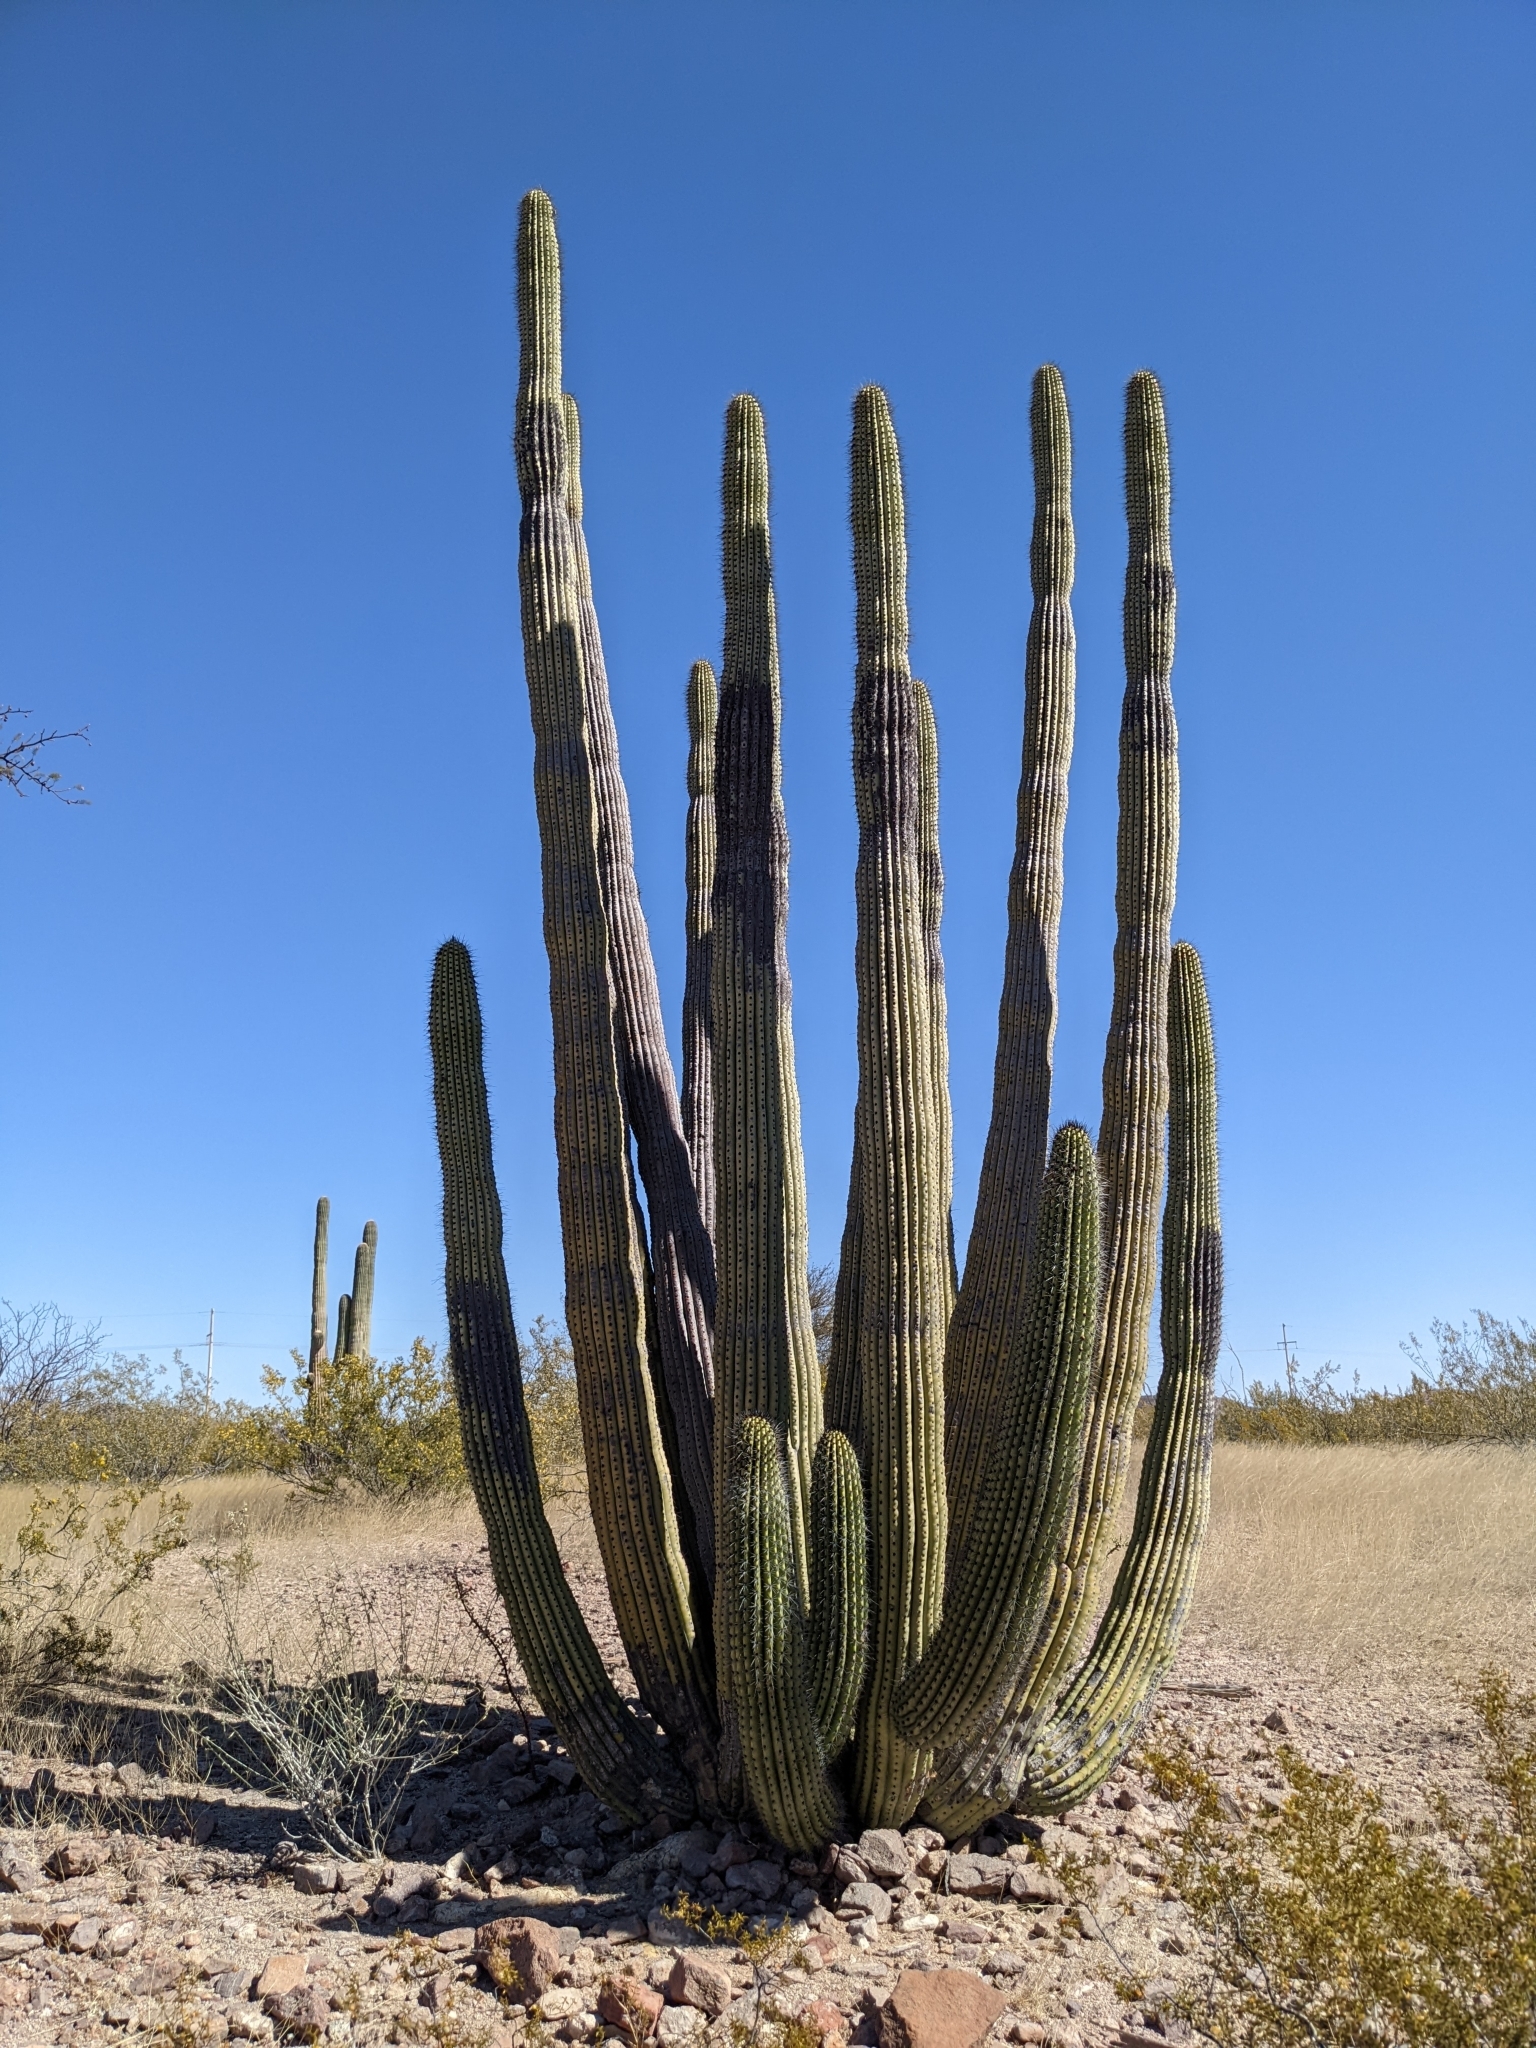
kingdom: Plantae
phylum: Tracheophyta
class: Magnoliopsida
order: Caryophyllales
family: Cactaceae
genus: Stenocereus
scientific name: Stenocereus thurberi
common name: Organ pipe cactus
